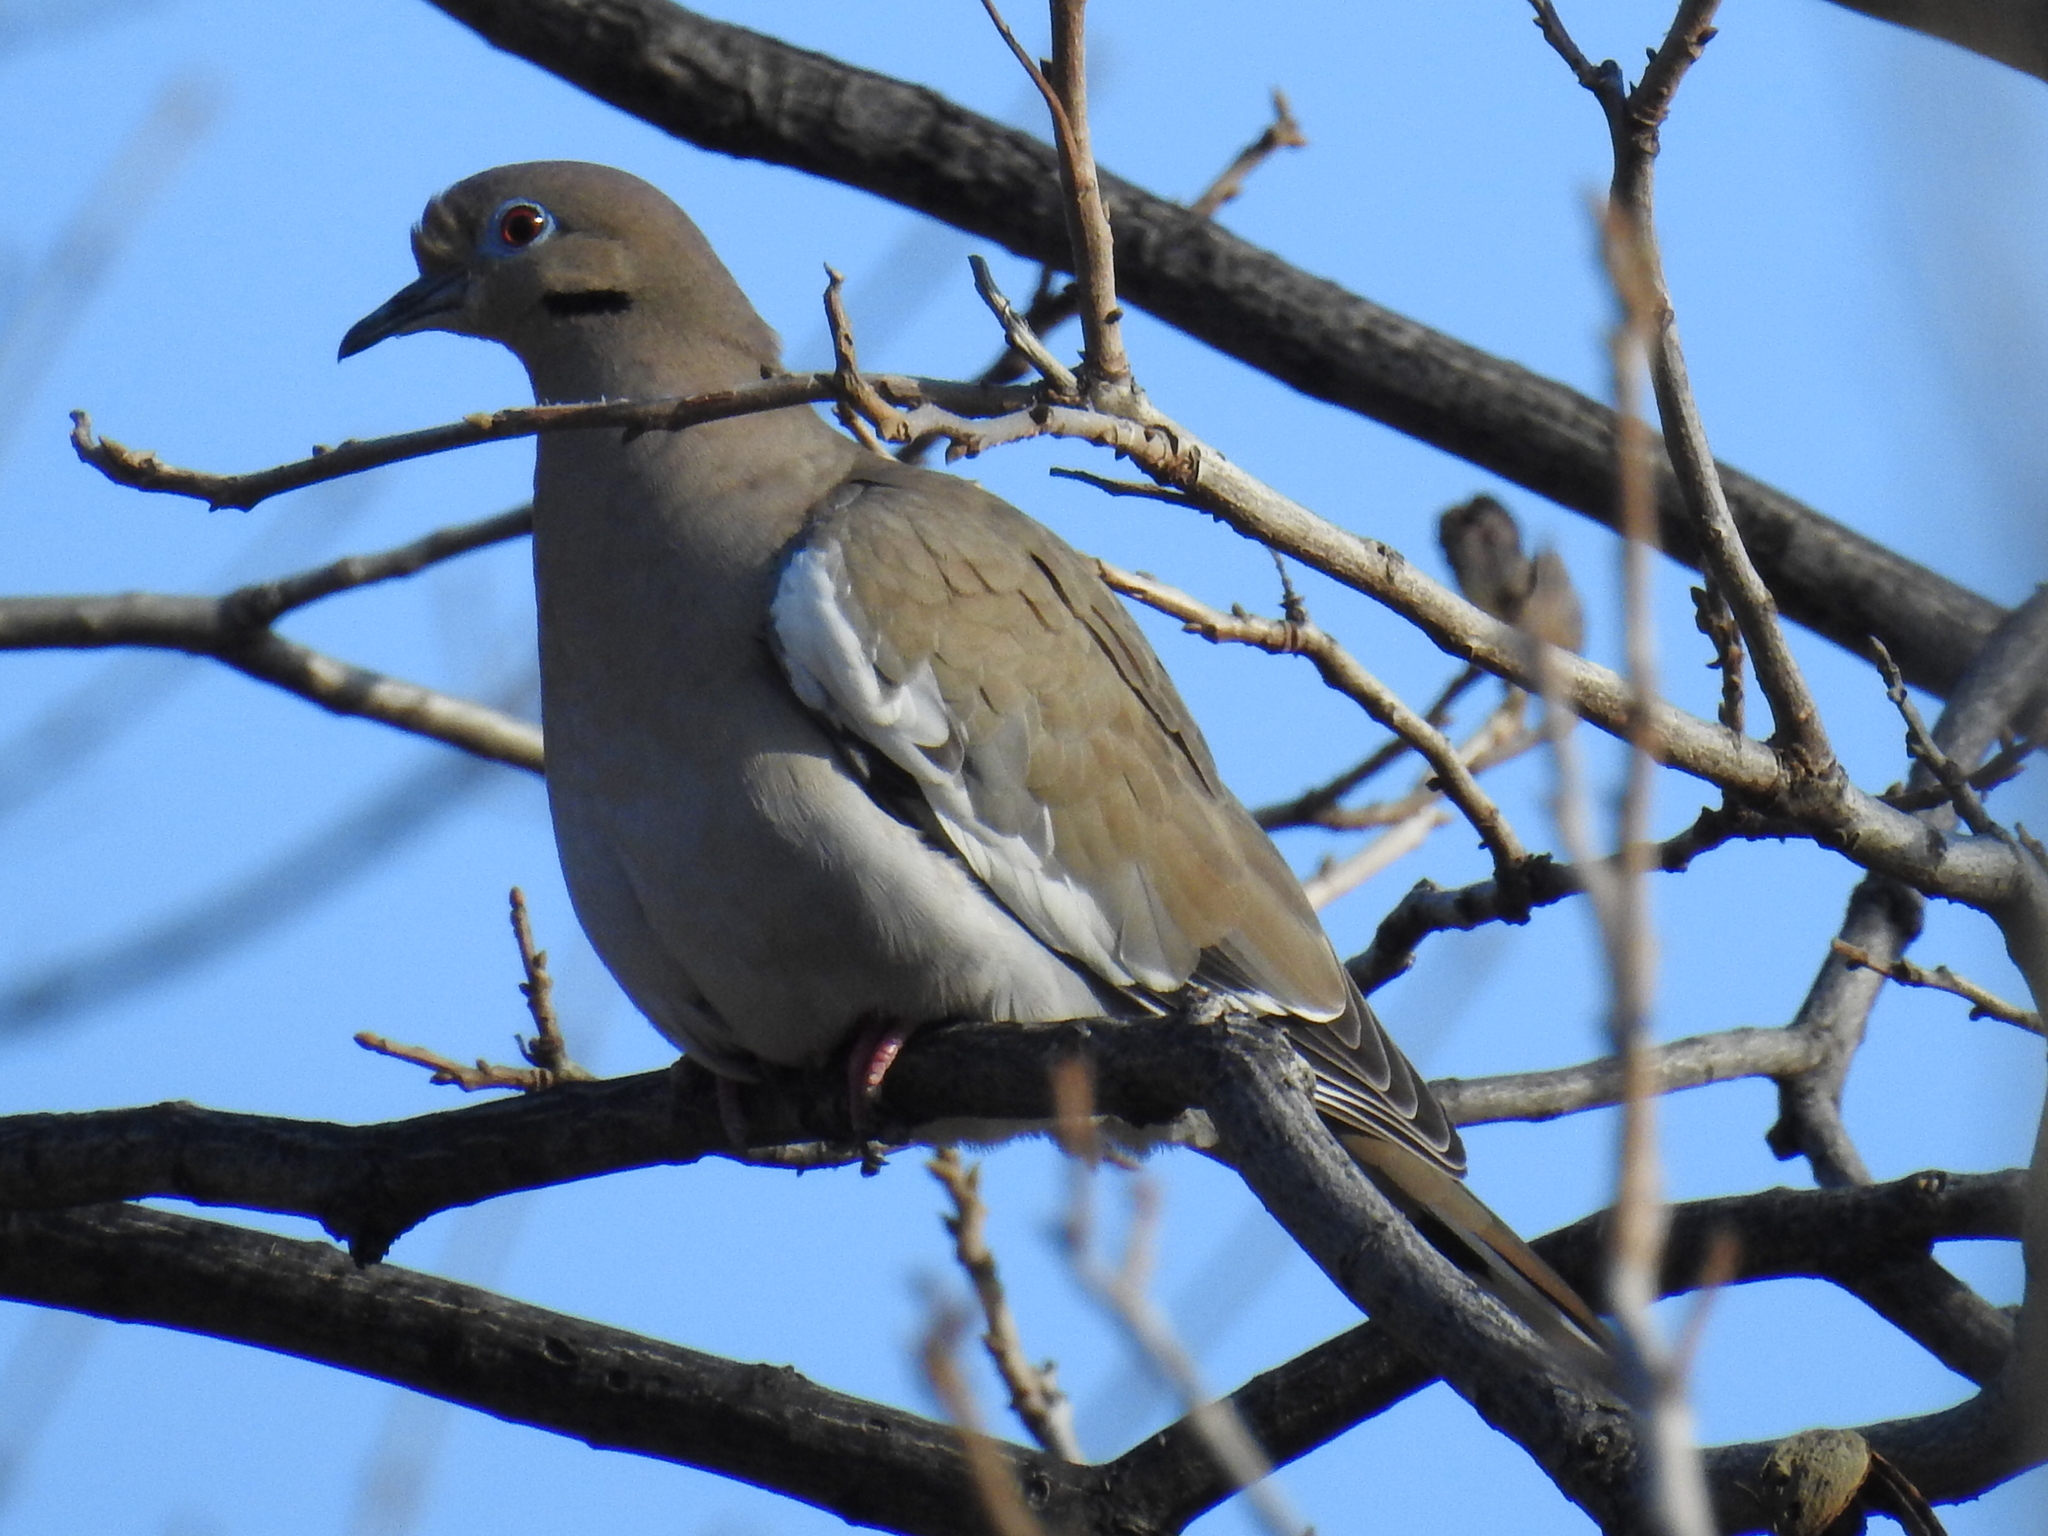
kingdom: Animalia
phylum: Chordata
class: Aves
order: Columbiformes
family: Columbidae
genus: Zenaida
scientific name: Zenaida asiatica
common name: White-winged dove
